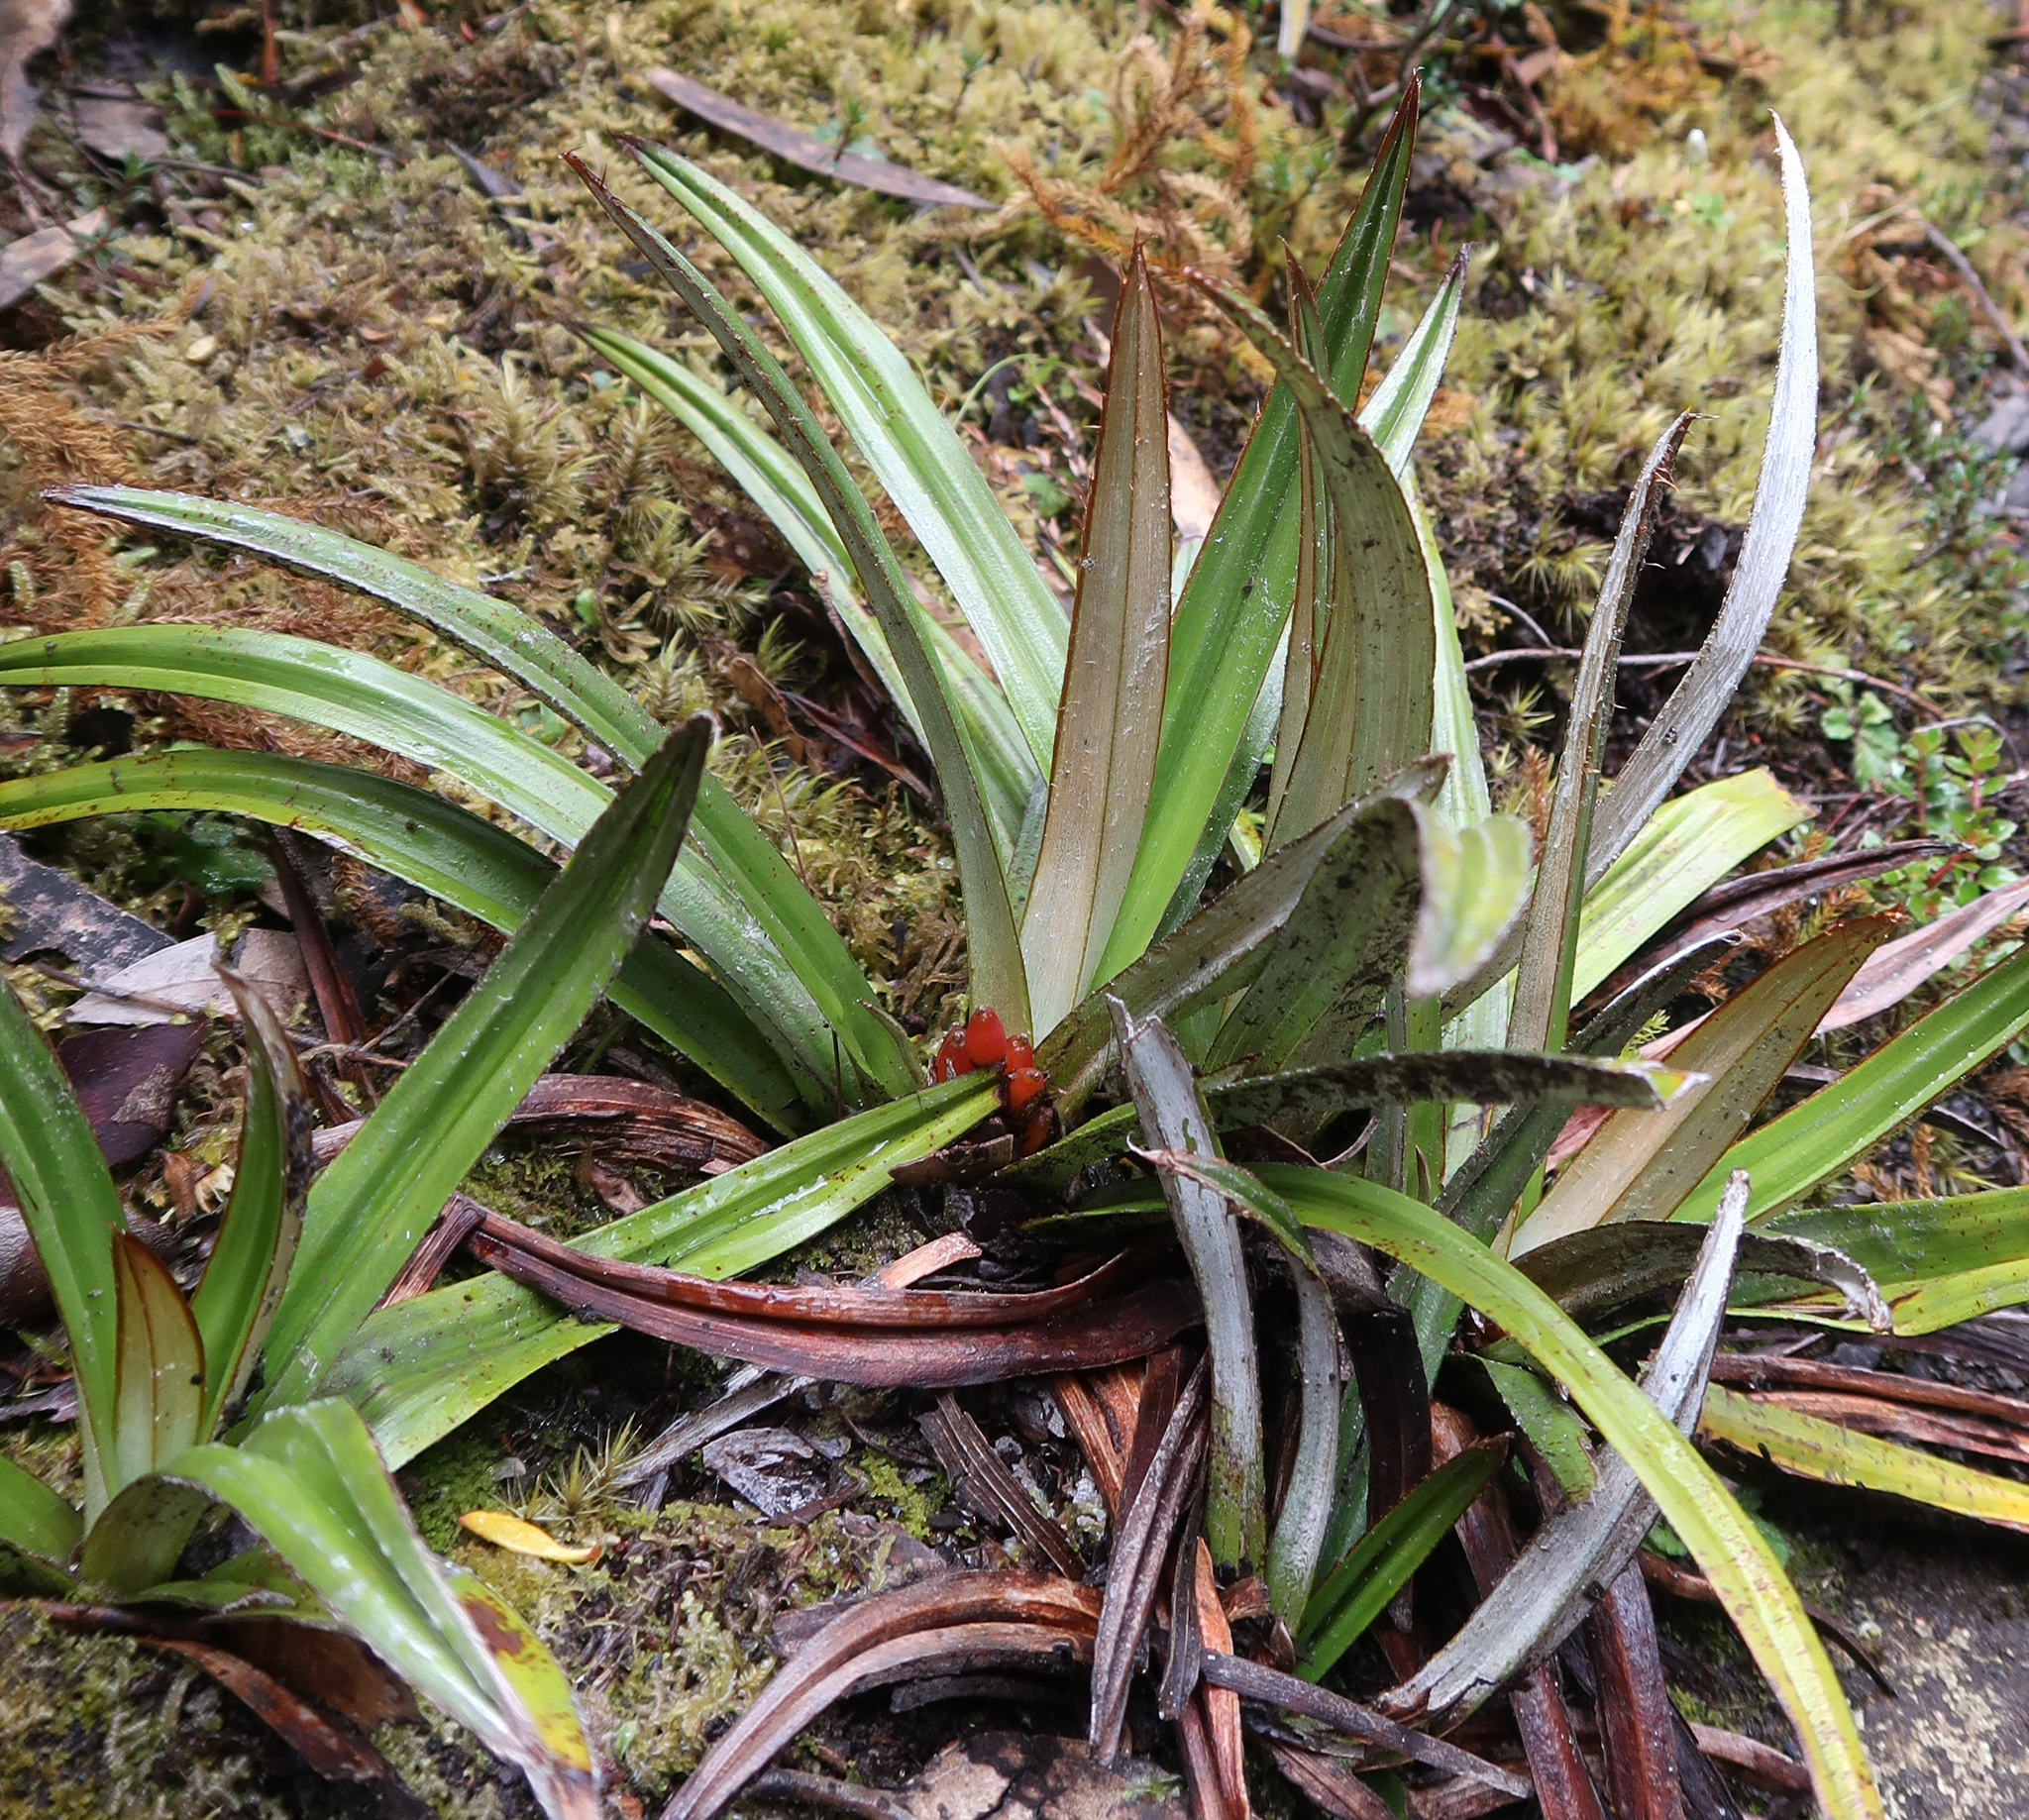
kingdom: Plantae
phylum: Tracheophyta
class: Liliopsida
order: Asparagales
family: Asteliaceae
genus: Astelia
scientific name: Astelia alpina
